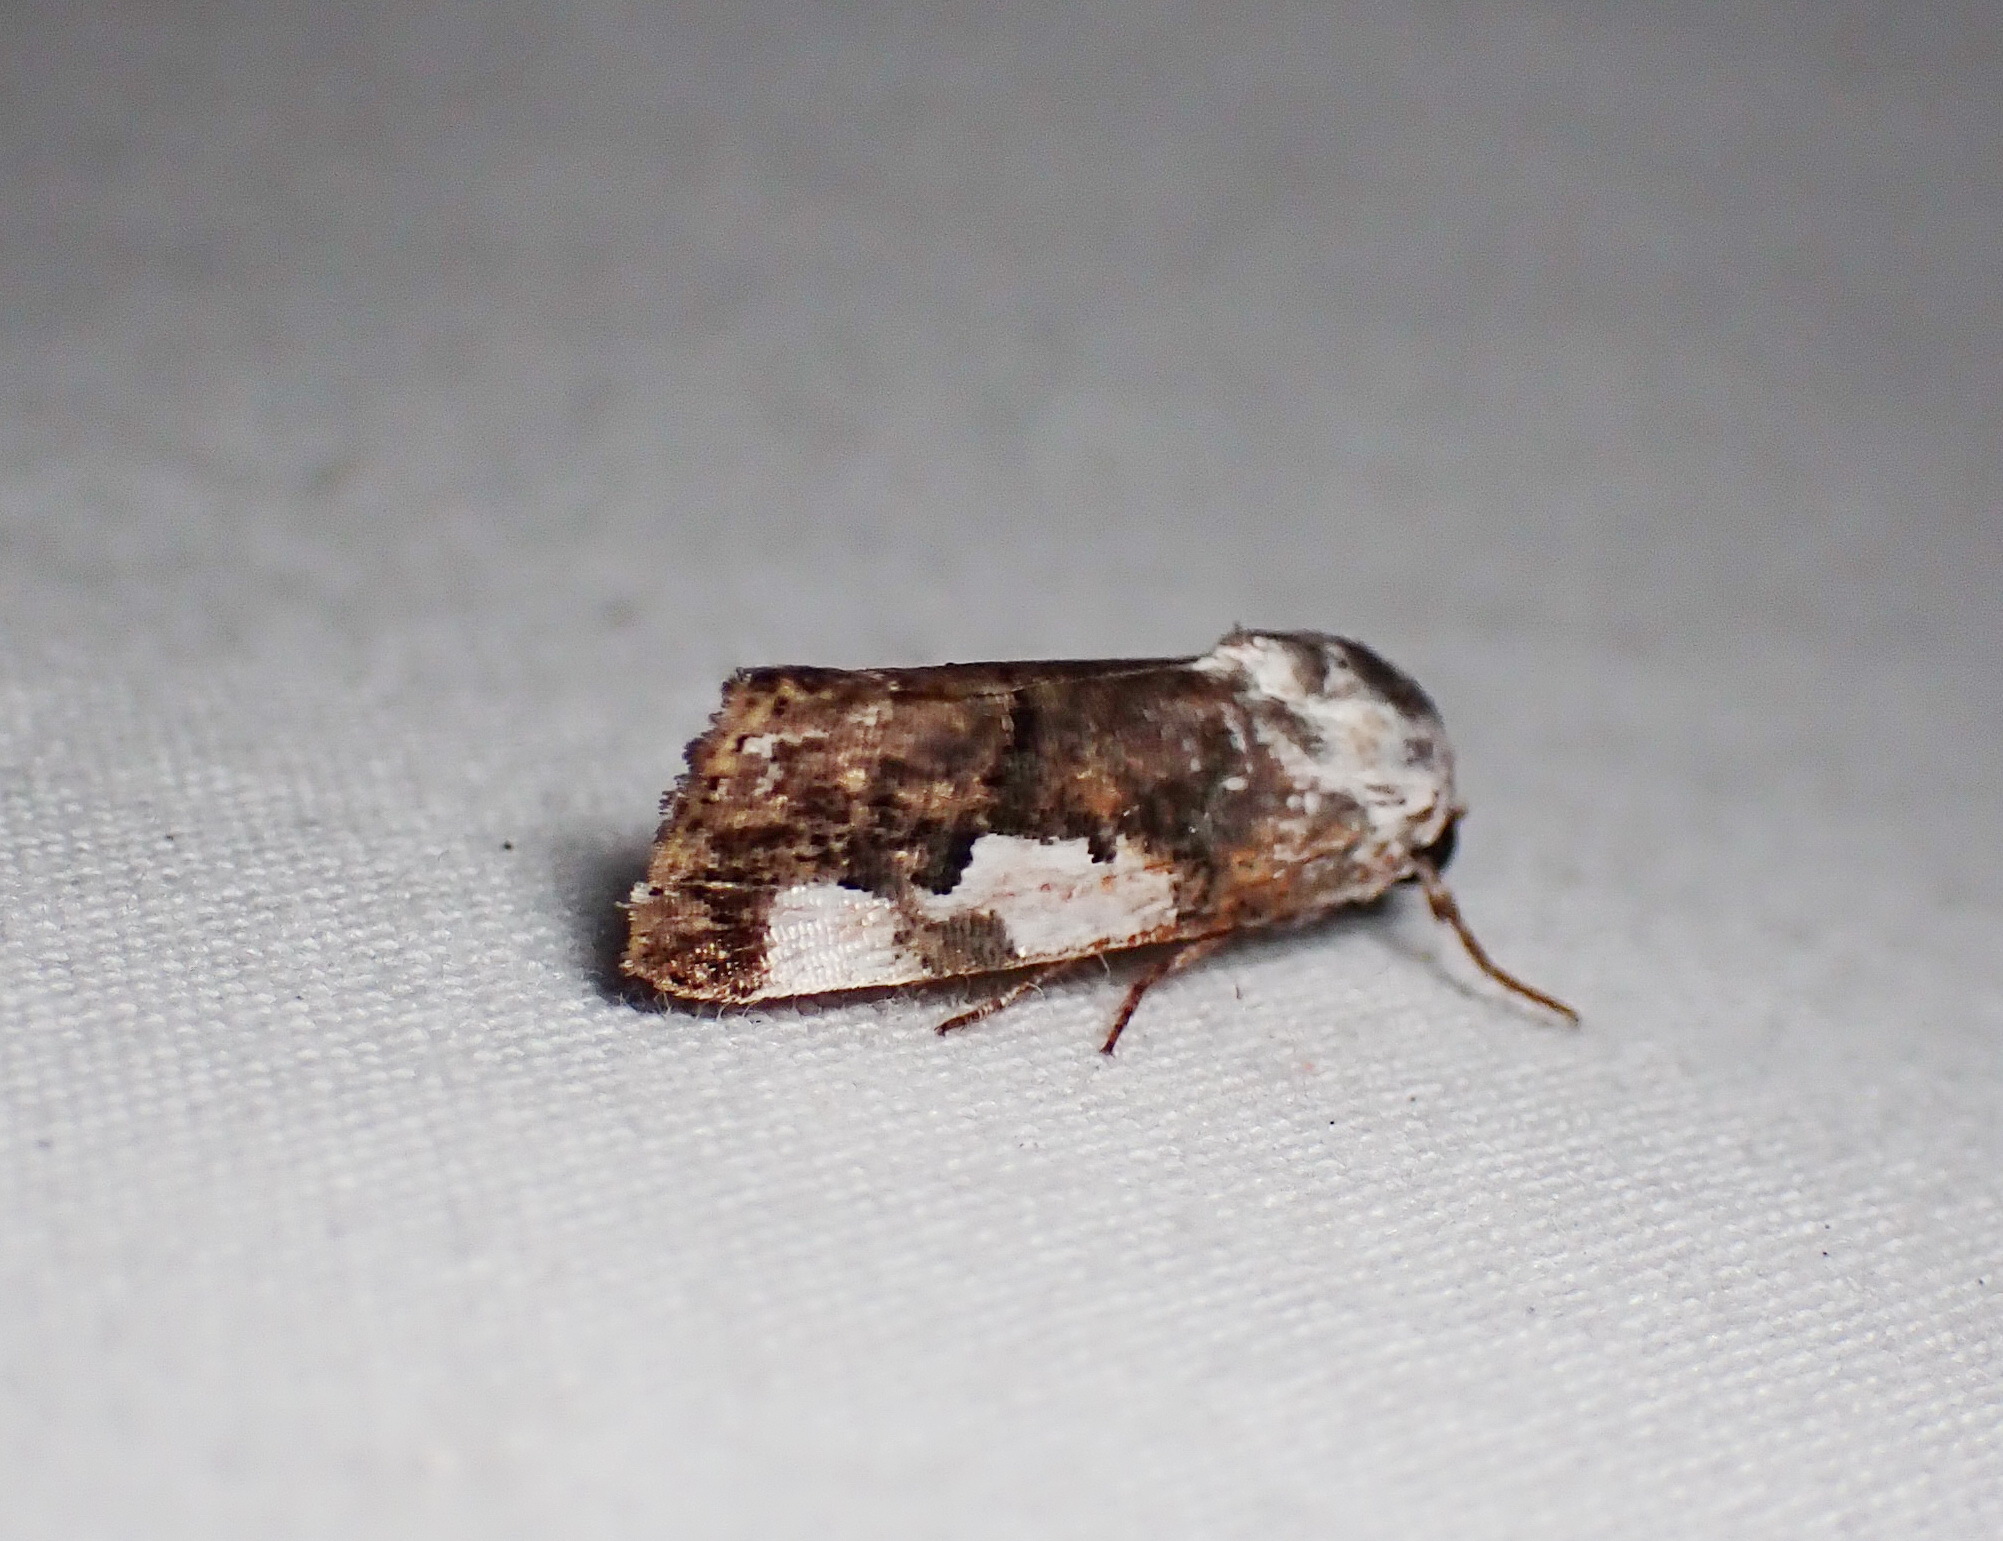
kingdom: Animalia
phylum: Arthropoda
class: Insecta
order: Lepidoptera
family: Noctuidae
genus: Acontia
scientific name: Acontia quadriplaga
